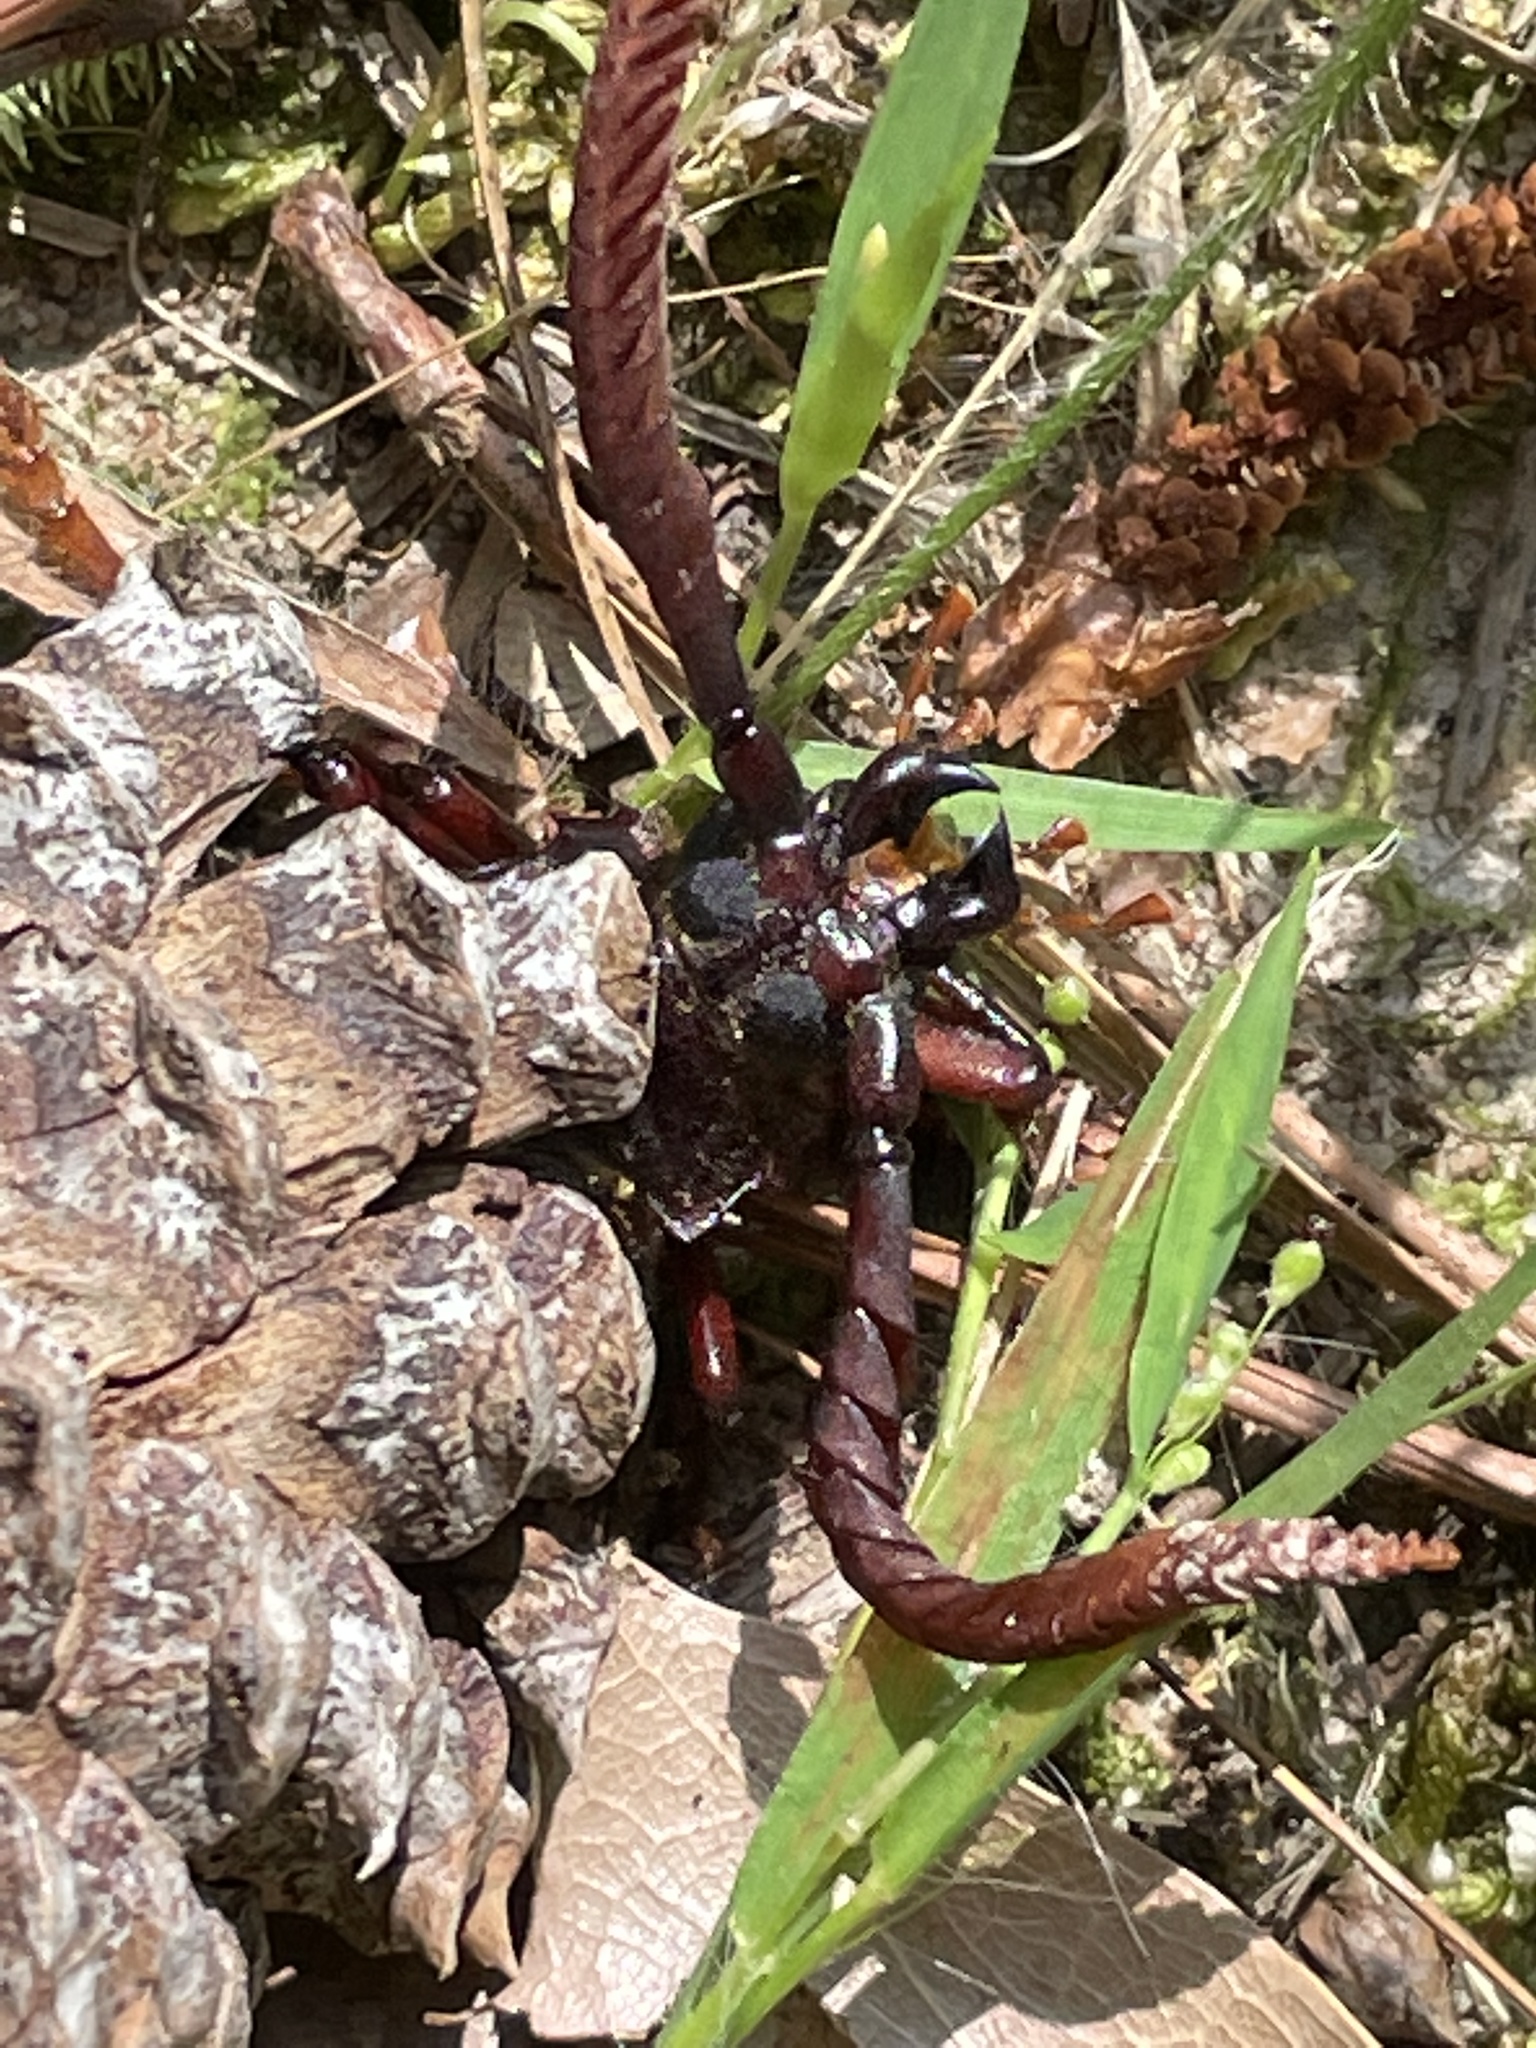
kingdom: Animalia
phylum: Arthropoda
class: Insecta
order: Coleoptera
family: Cerambycidae
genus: Prionus
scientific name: Prionus imbricornis
